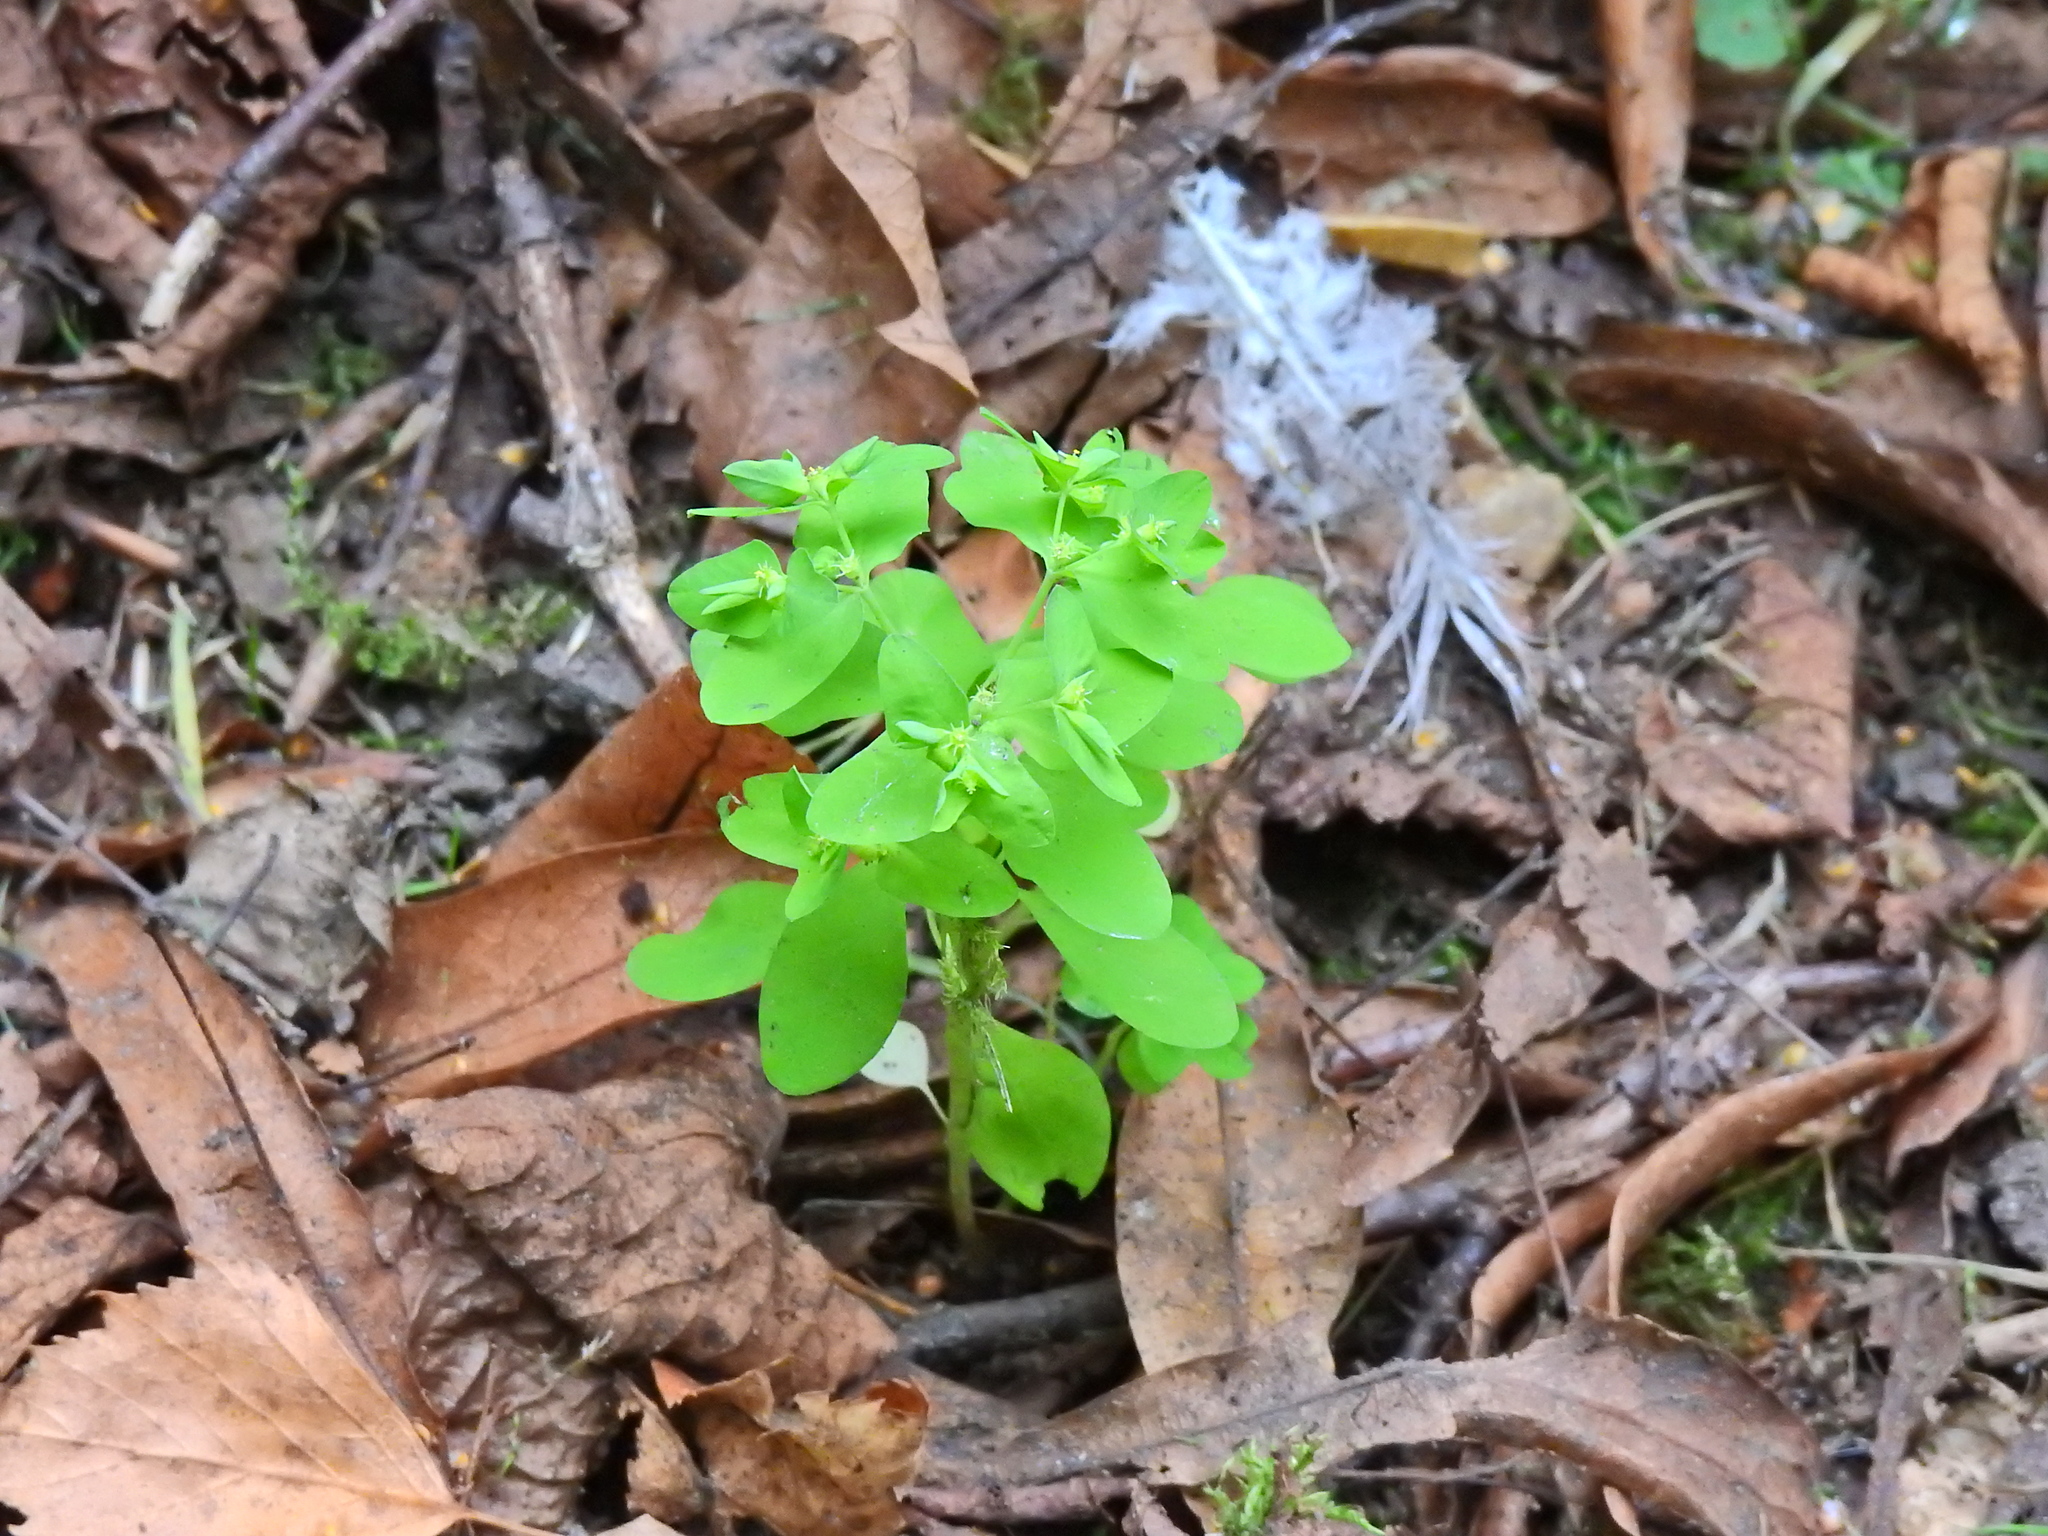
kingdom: Plantae
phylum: Tracheophyta
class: Magnoliopsida
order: Malpighiales
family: Euphorbiaceae
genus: Euphorbia
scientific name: Euphorbia peplus
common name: Petty spurge
